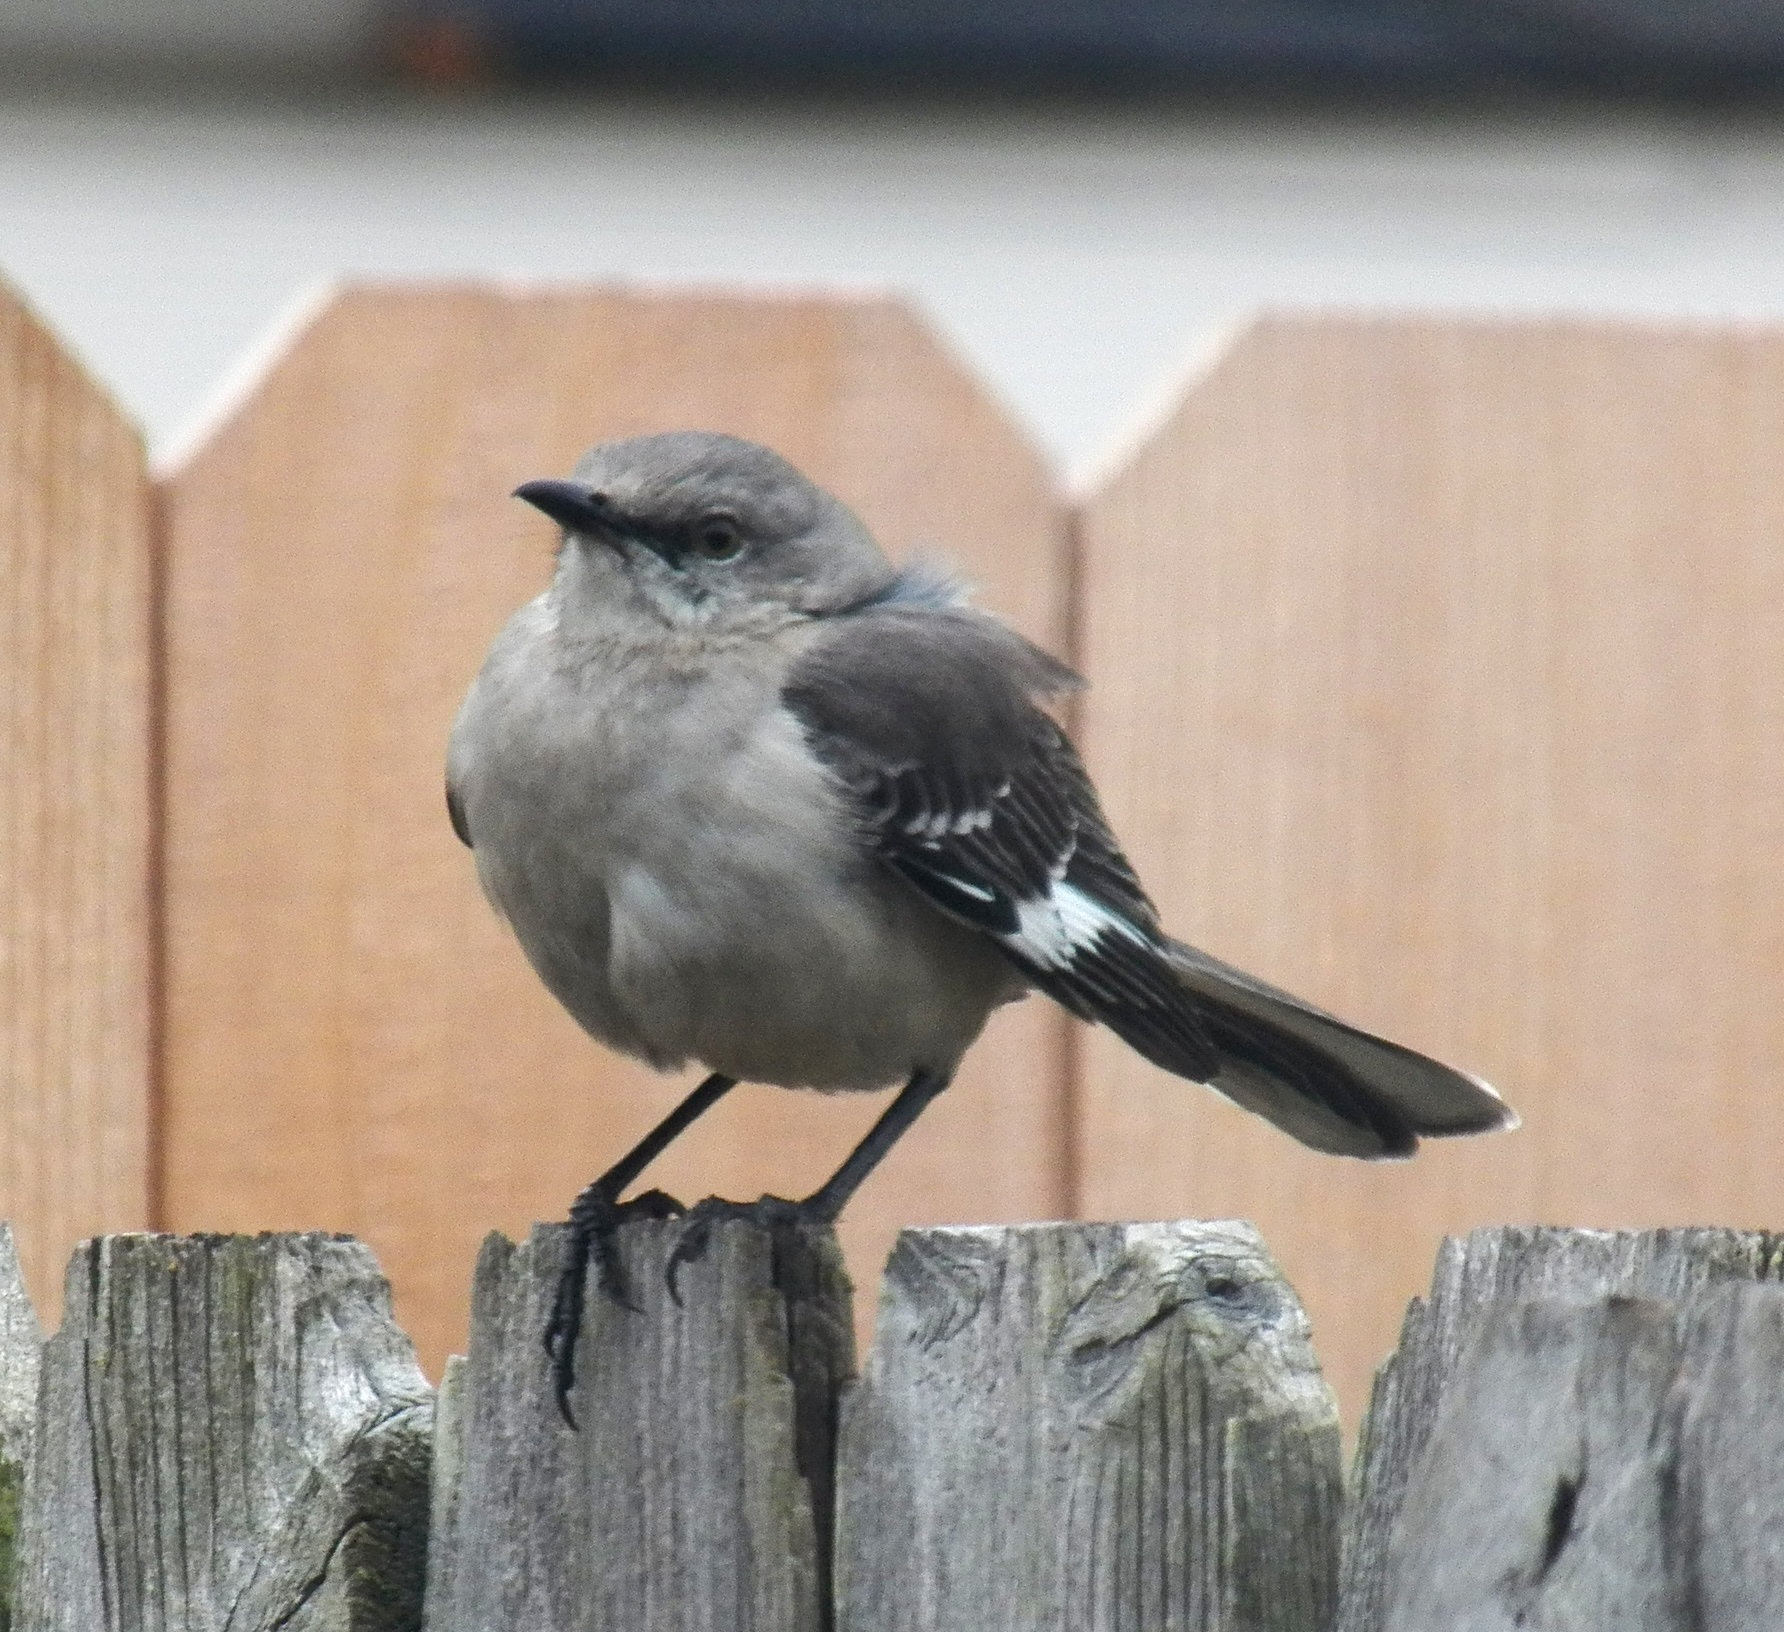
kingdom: Animalia
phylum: Chordata
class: Aves
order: Passeriformes
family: Mimidae
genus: Mimus
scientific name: Mimus polyglottos
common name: Northern mockingbird
